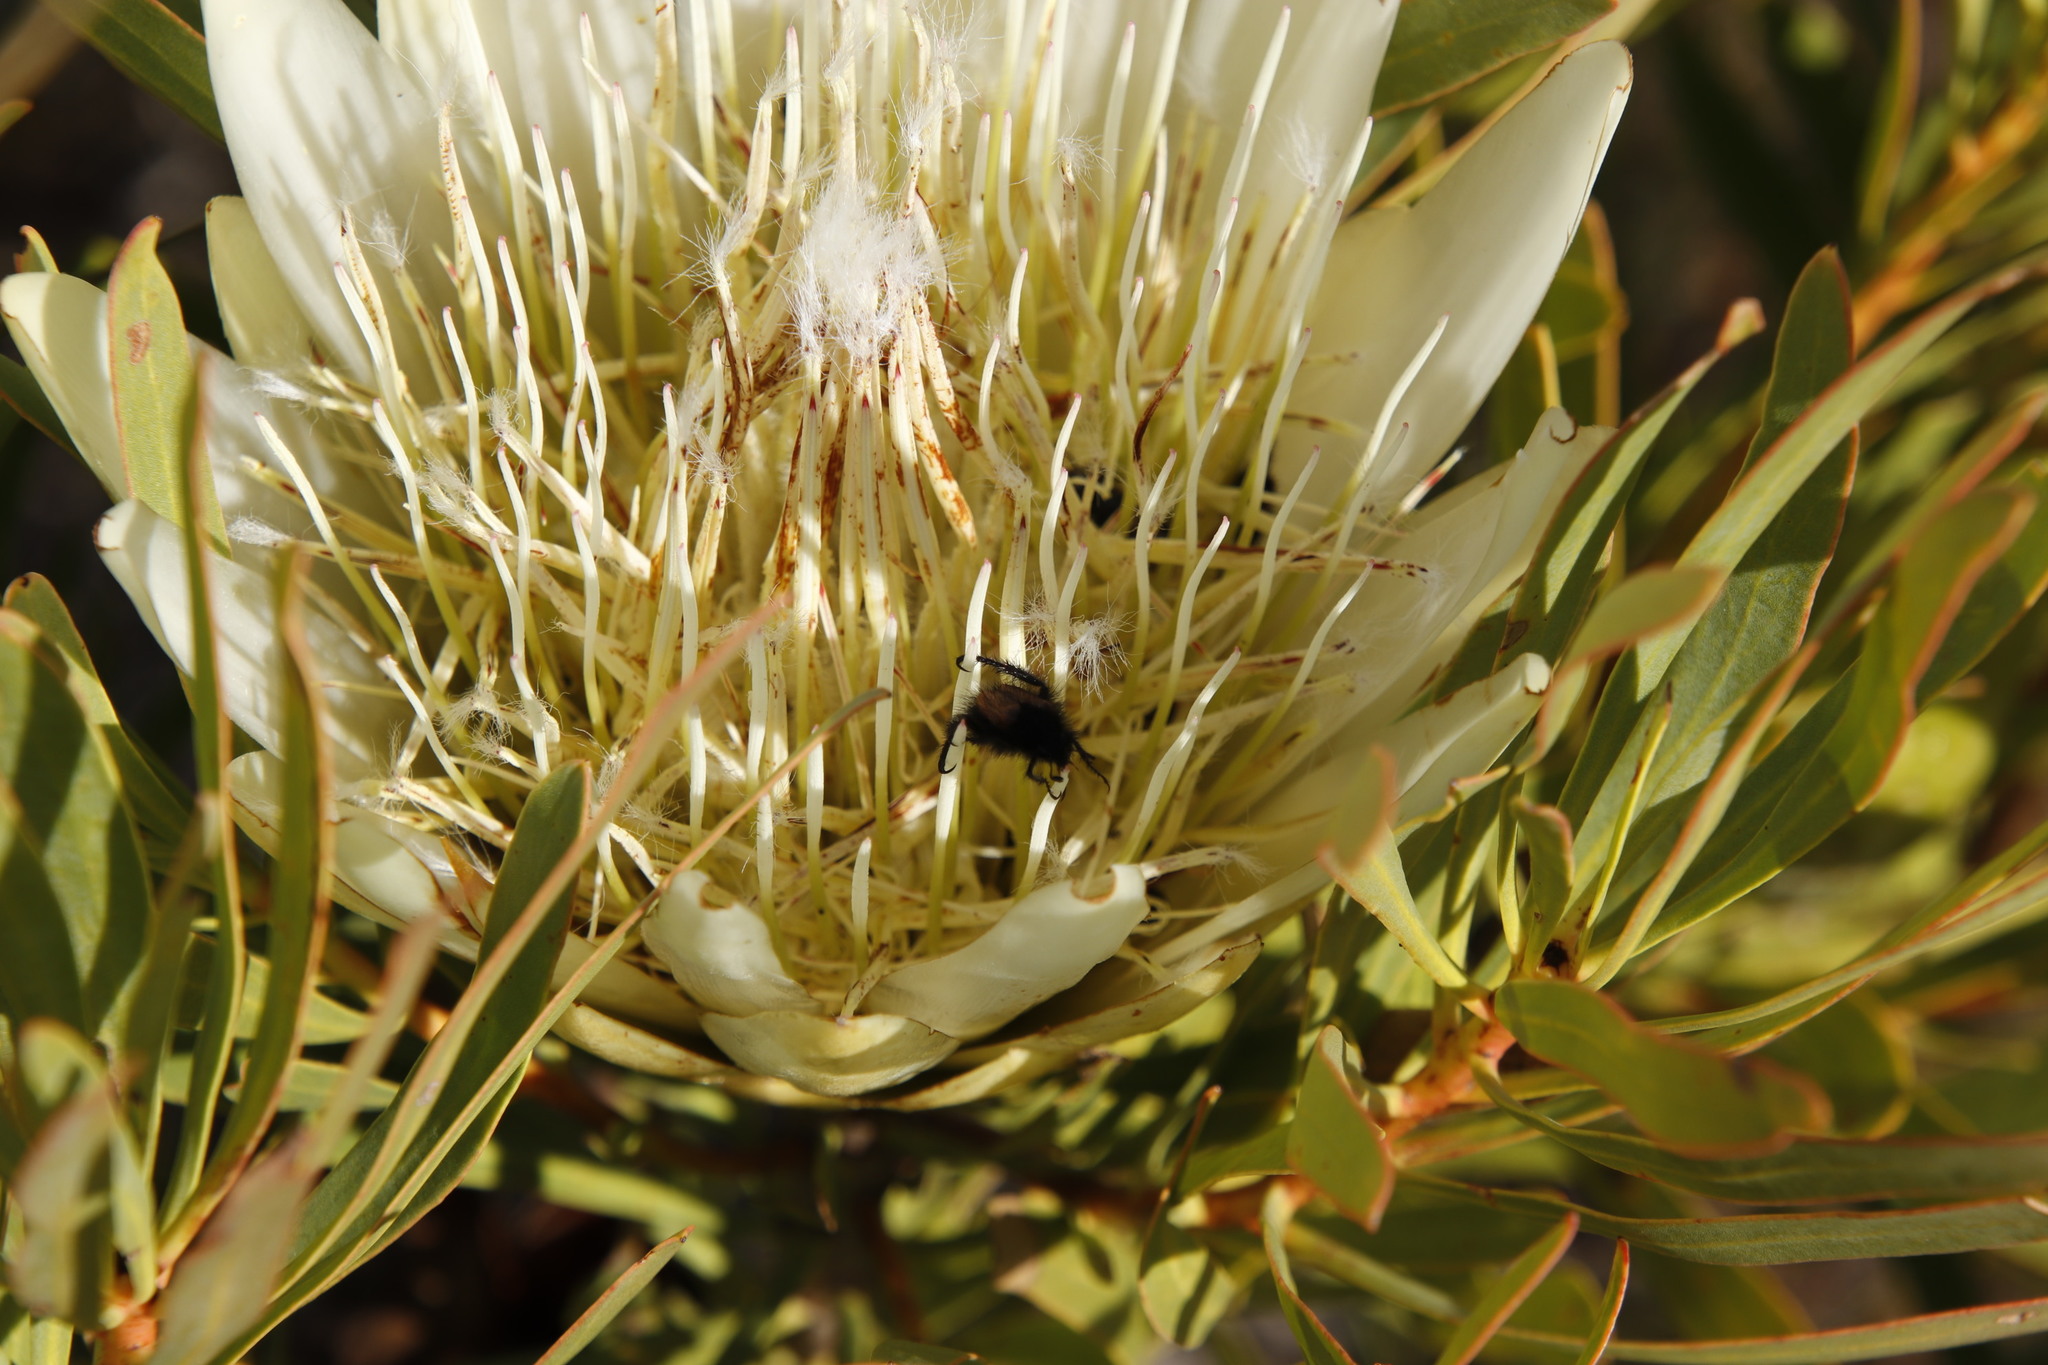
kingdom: Plantae
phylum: Tracheophyta
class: Magnoliopsida
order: Proteales
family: Proteaceae
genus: Protea
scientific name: Protea repens
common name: Sugarbush
